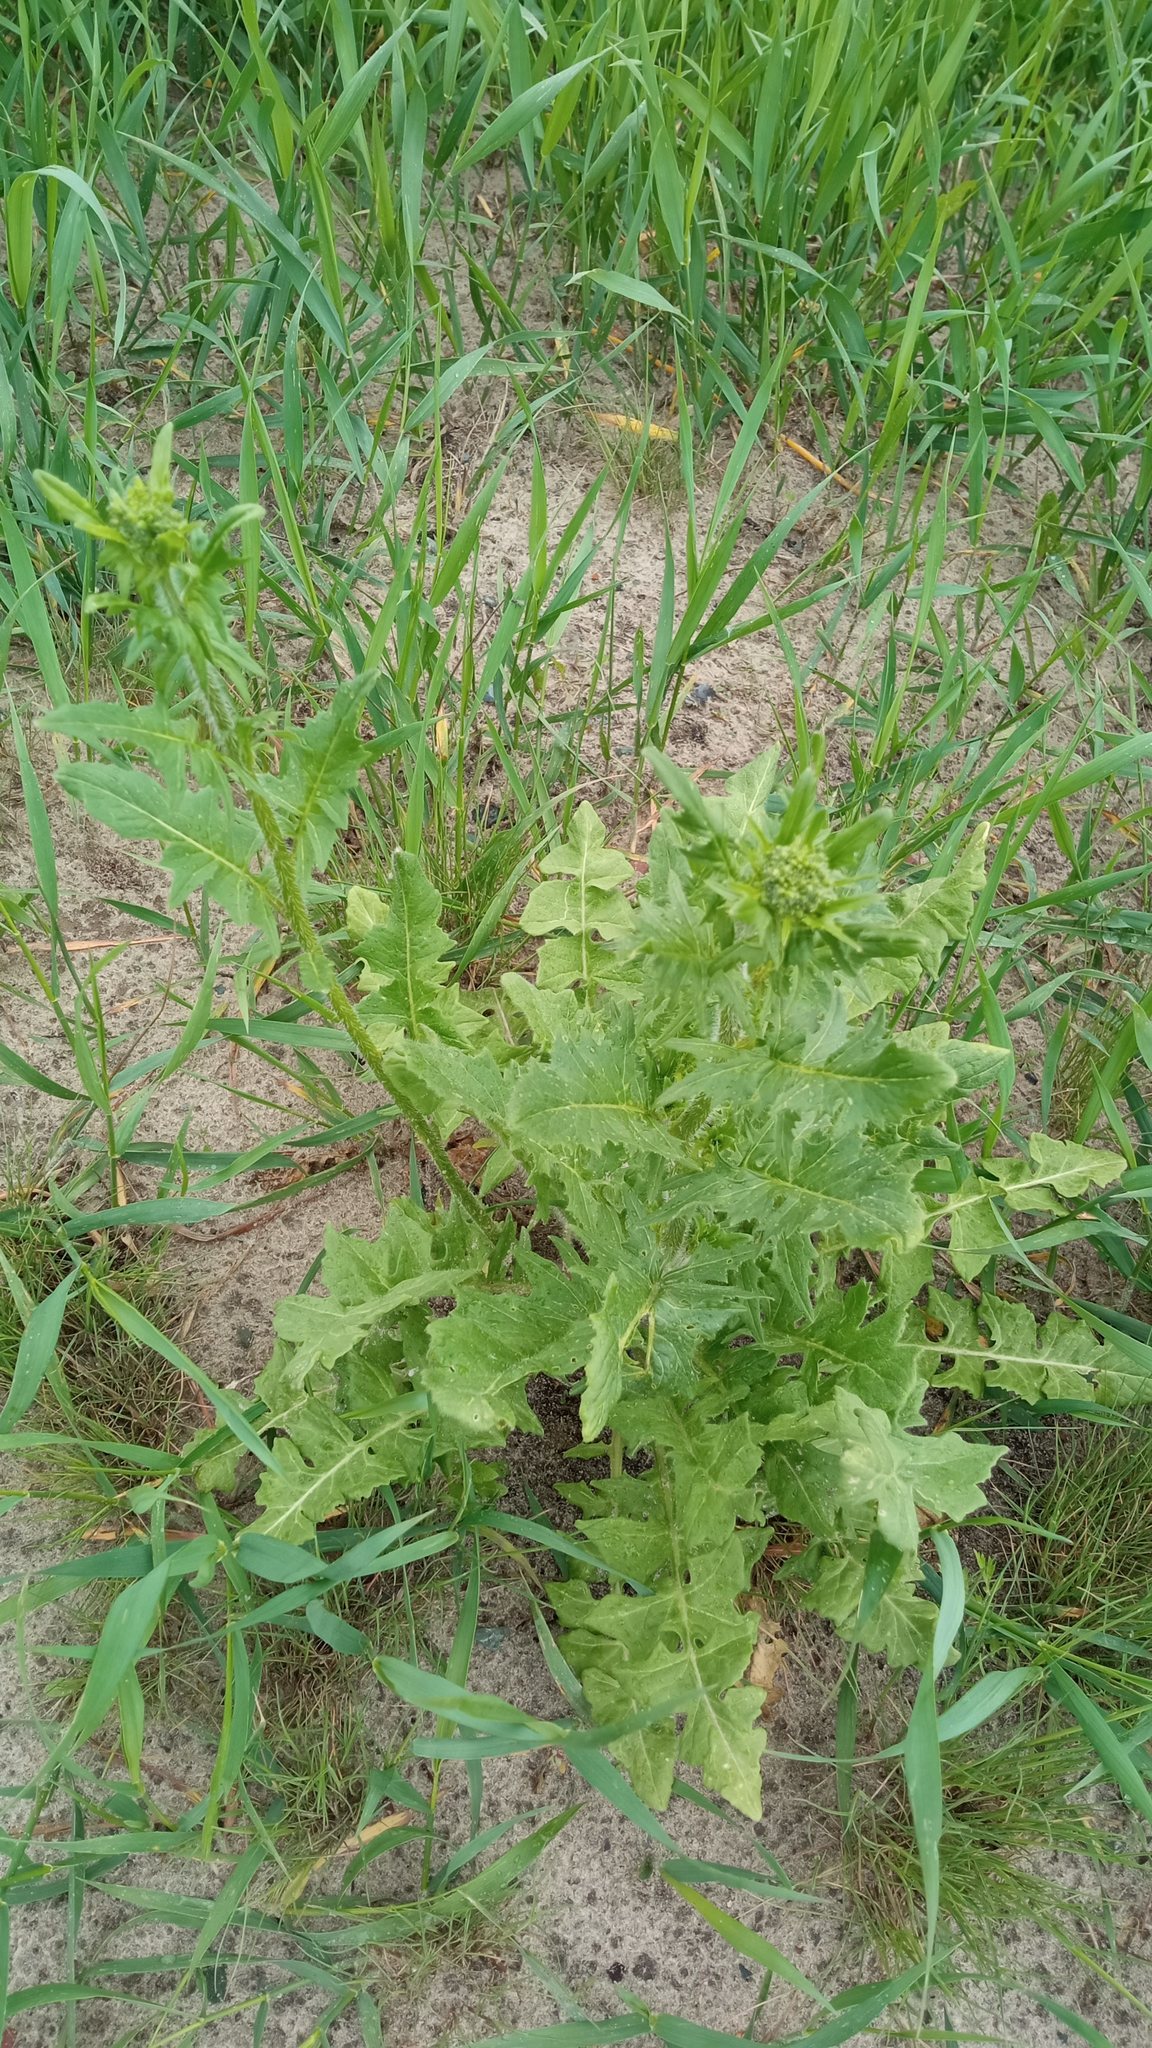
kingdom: Plantae
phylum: Tracheophyta
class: Magnoliopsida
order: Brassicales
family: Brassicaceae
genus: Sisymbrium
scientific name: Sisymbrium loeselii
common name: False london-rocket
